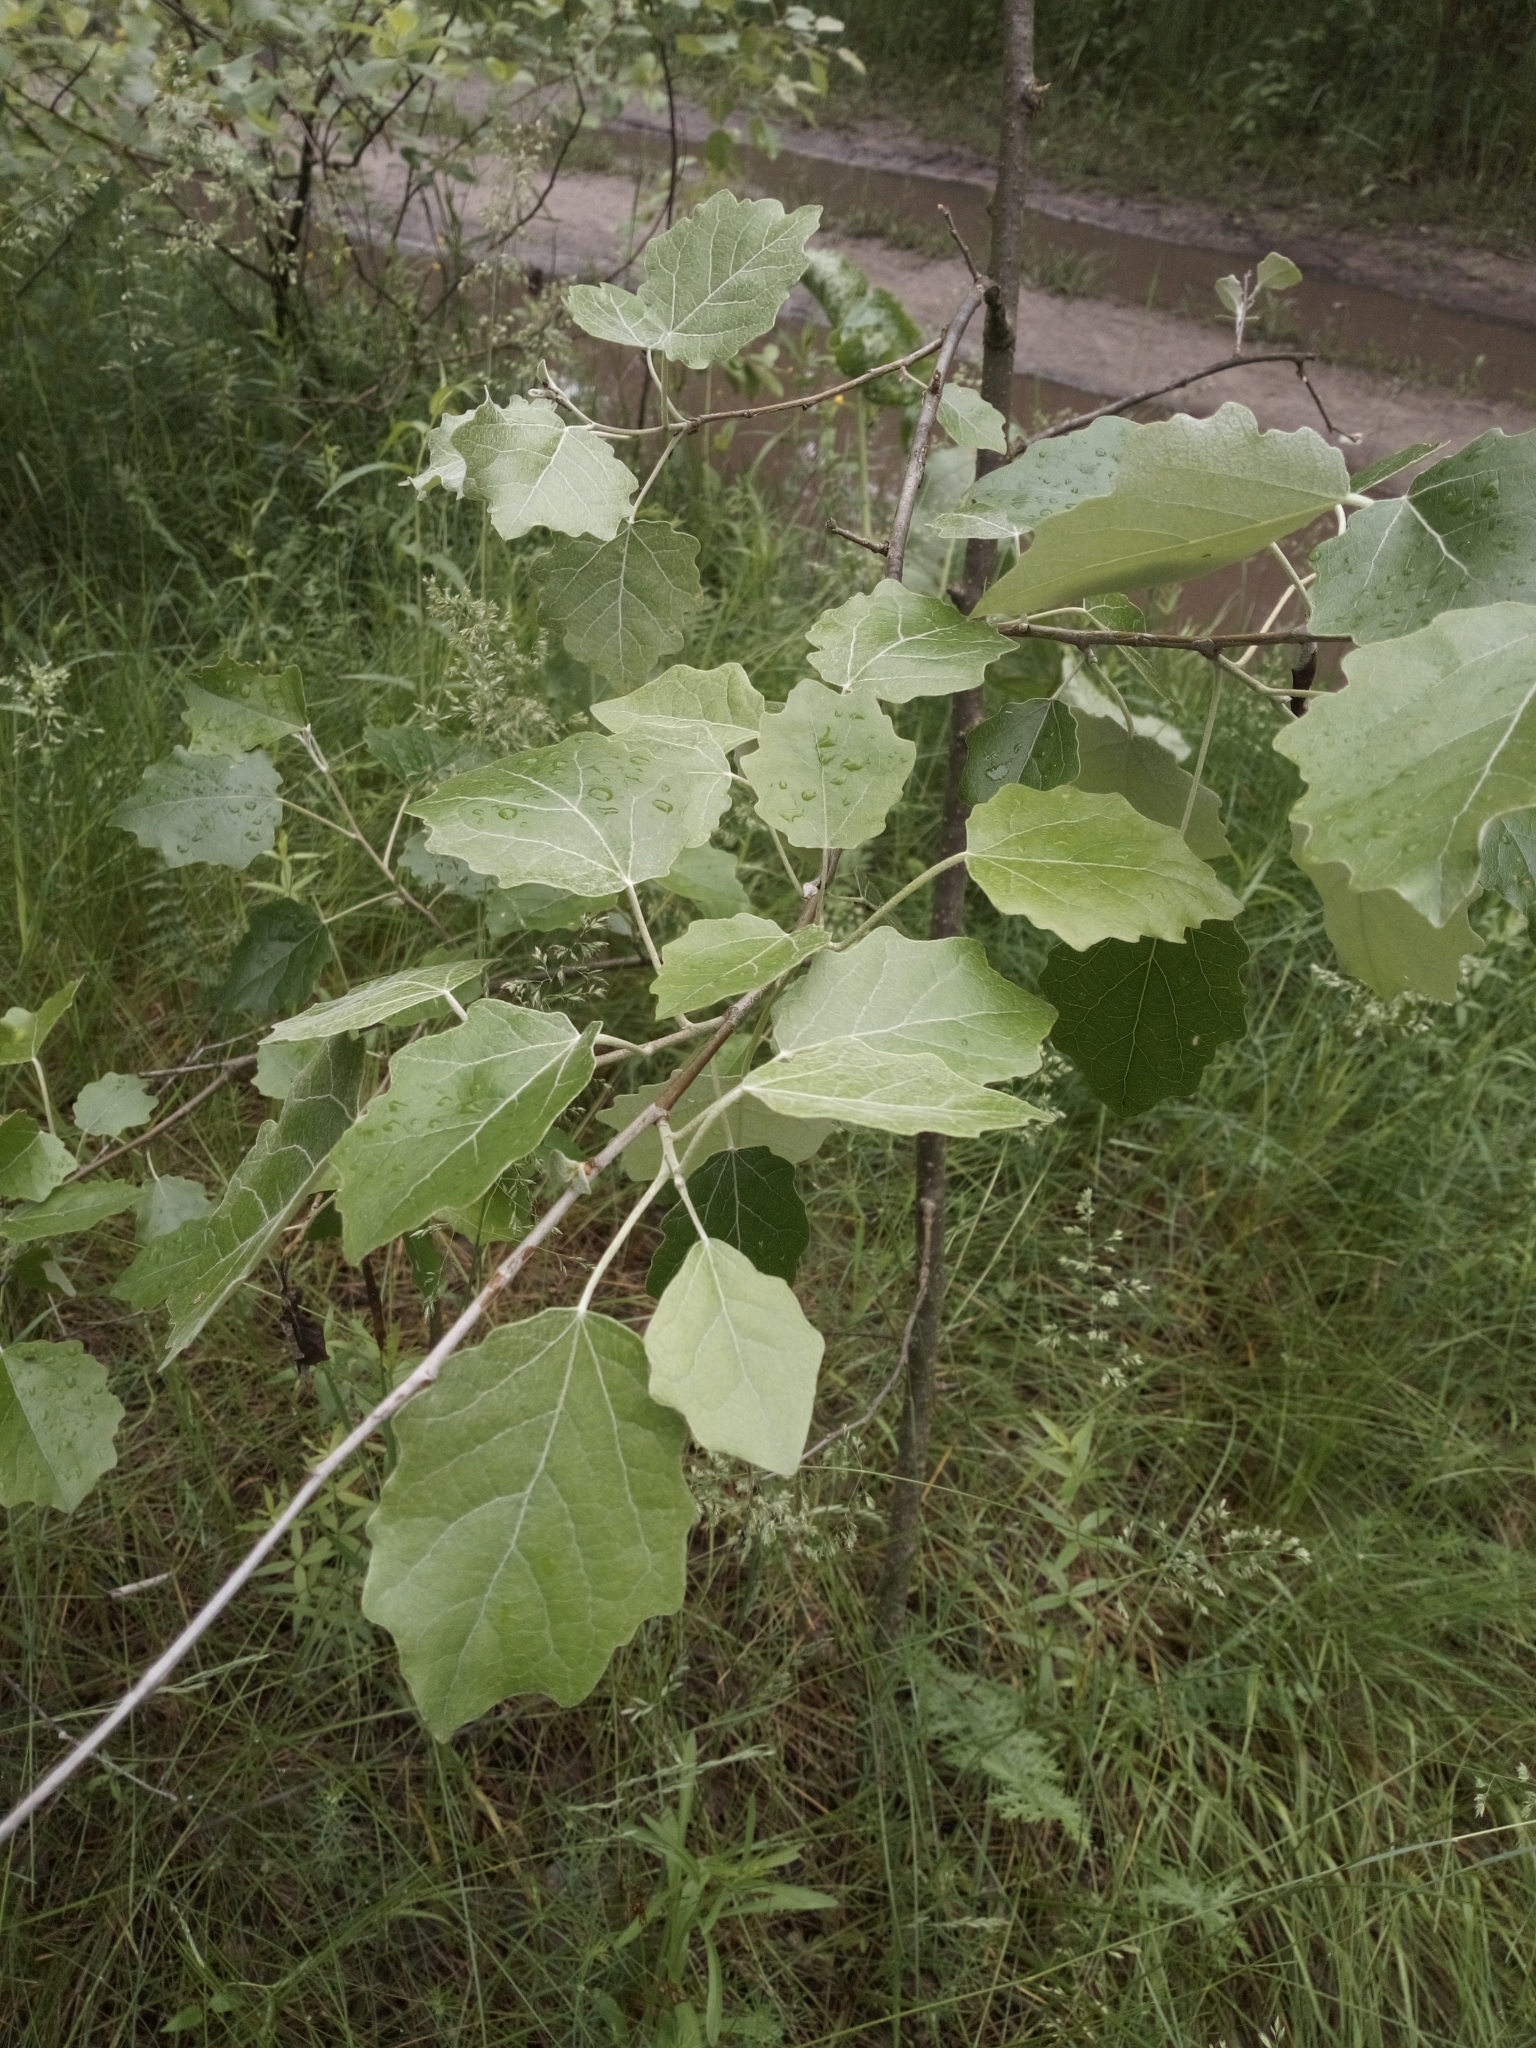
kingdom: Plantae
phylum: Tracheophyta
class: Magnoliopsida
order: Malpighiales
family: Salicaceae
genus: Populus
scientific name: Populus canescens
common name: Gray poplar
